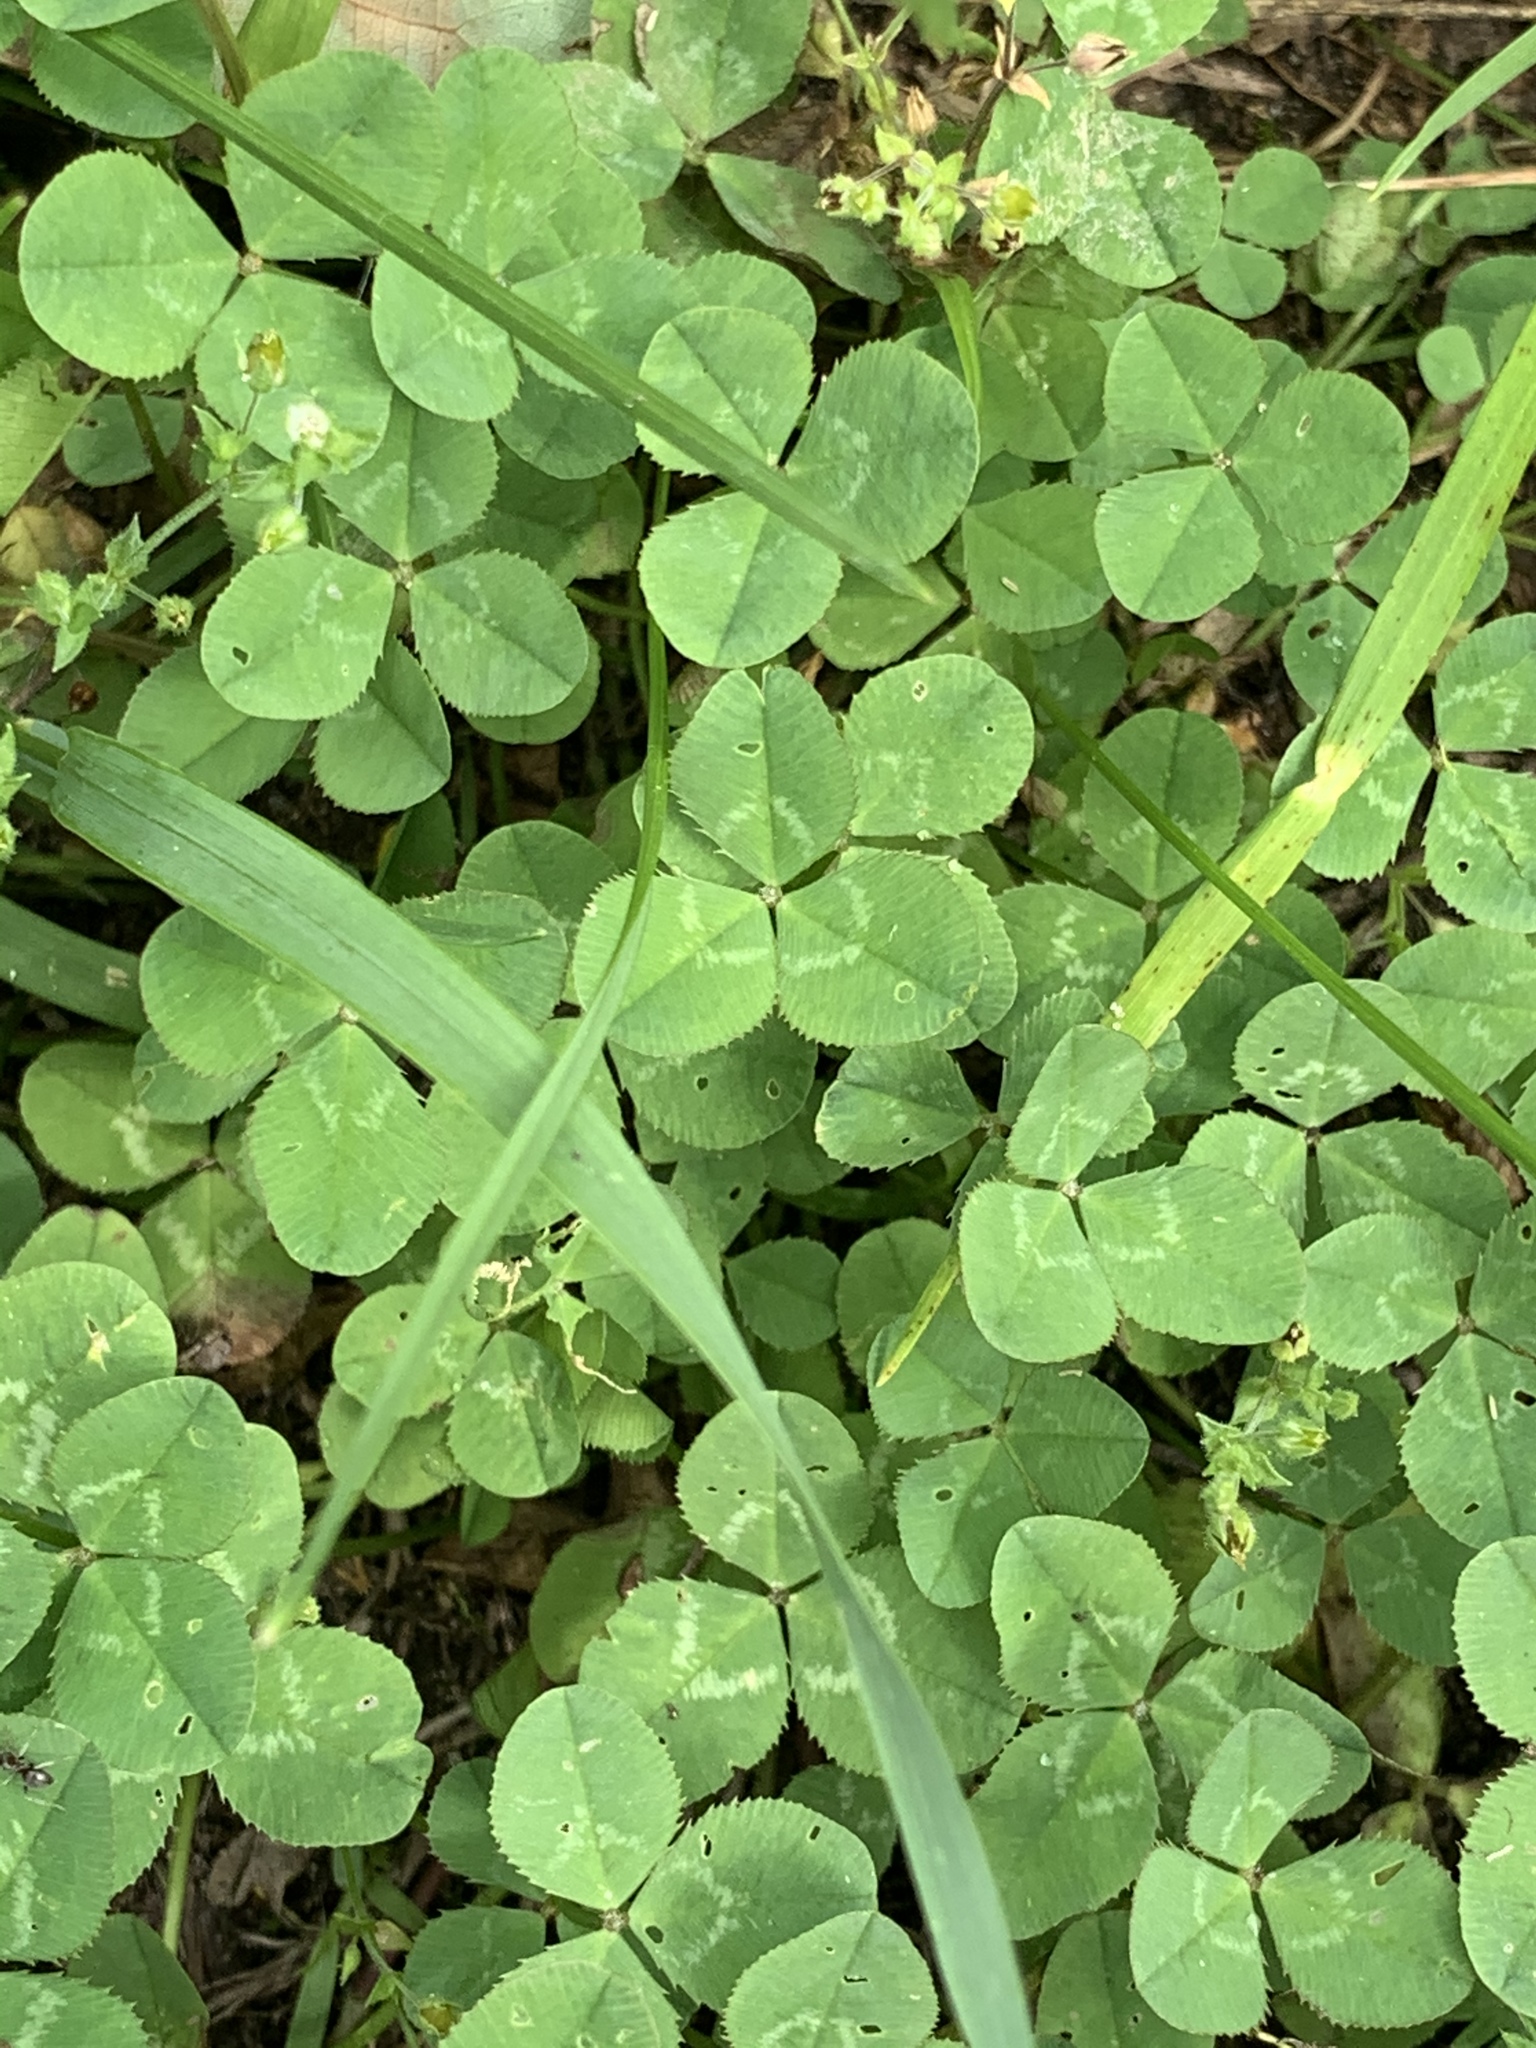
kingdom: Plantae
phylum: Tracheophyta
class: Magnoliopsida
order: Fabales
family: Fabaceae
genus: Trifolium
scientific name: Trifolium repens
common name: White clover
